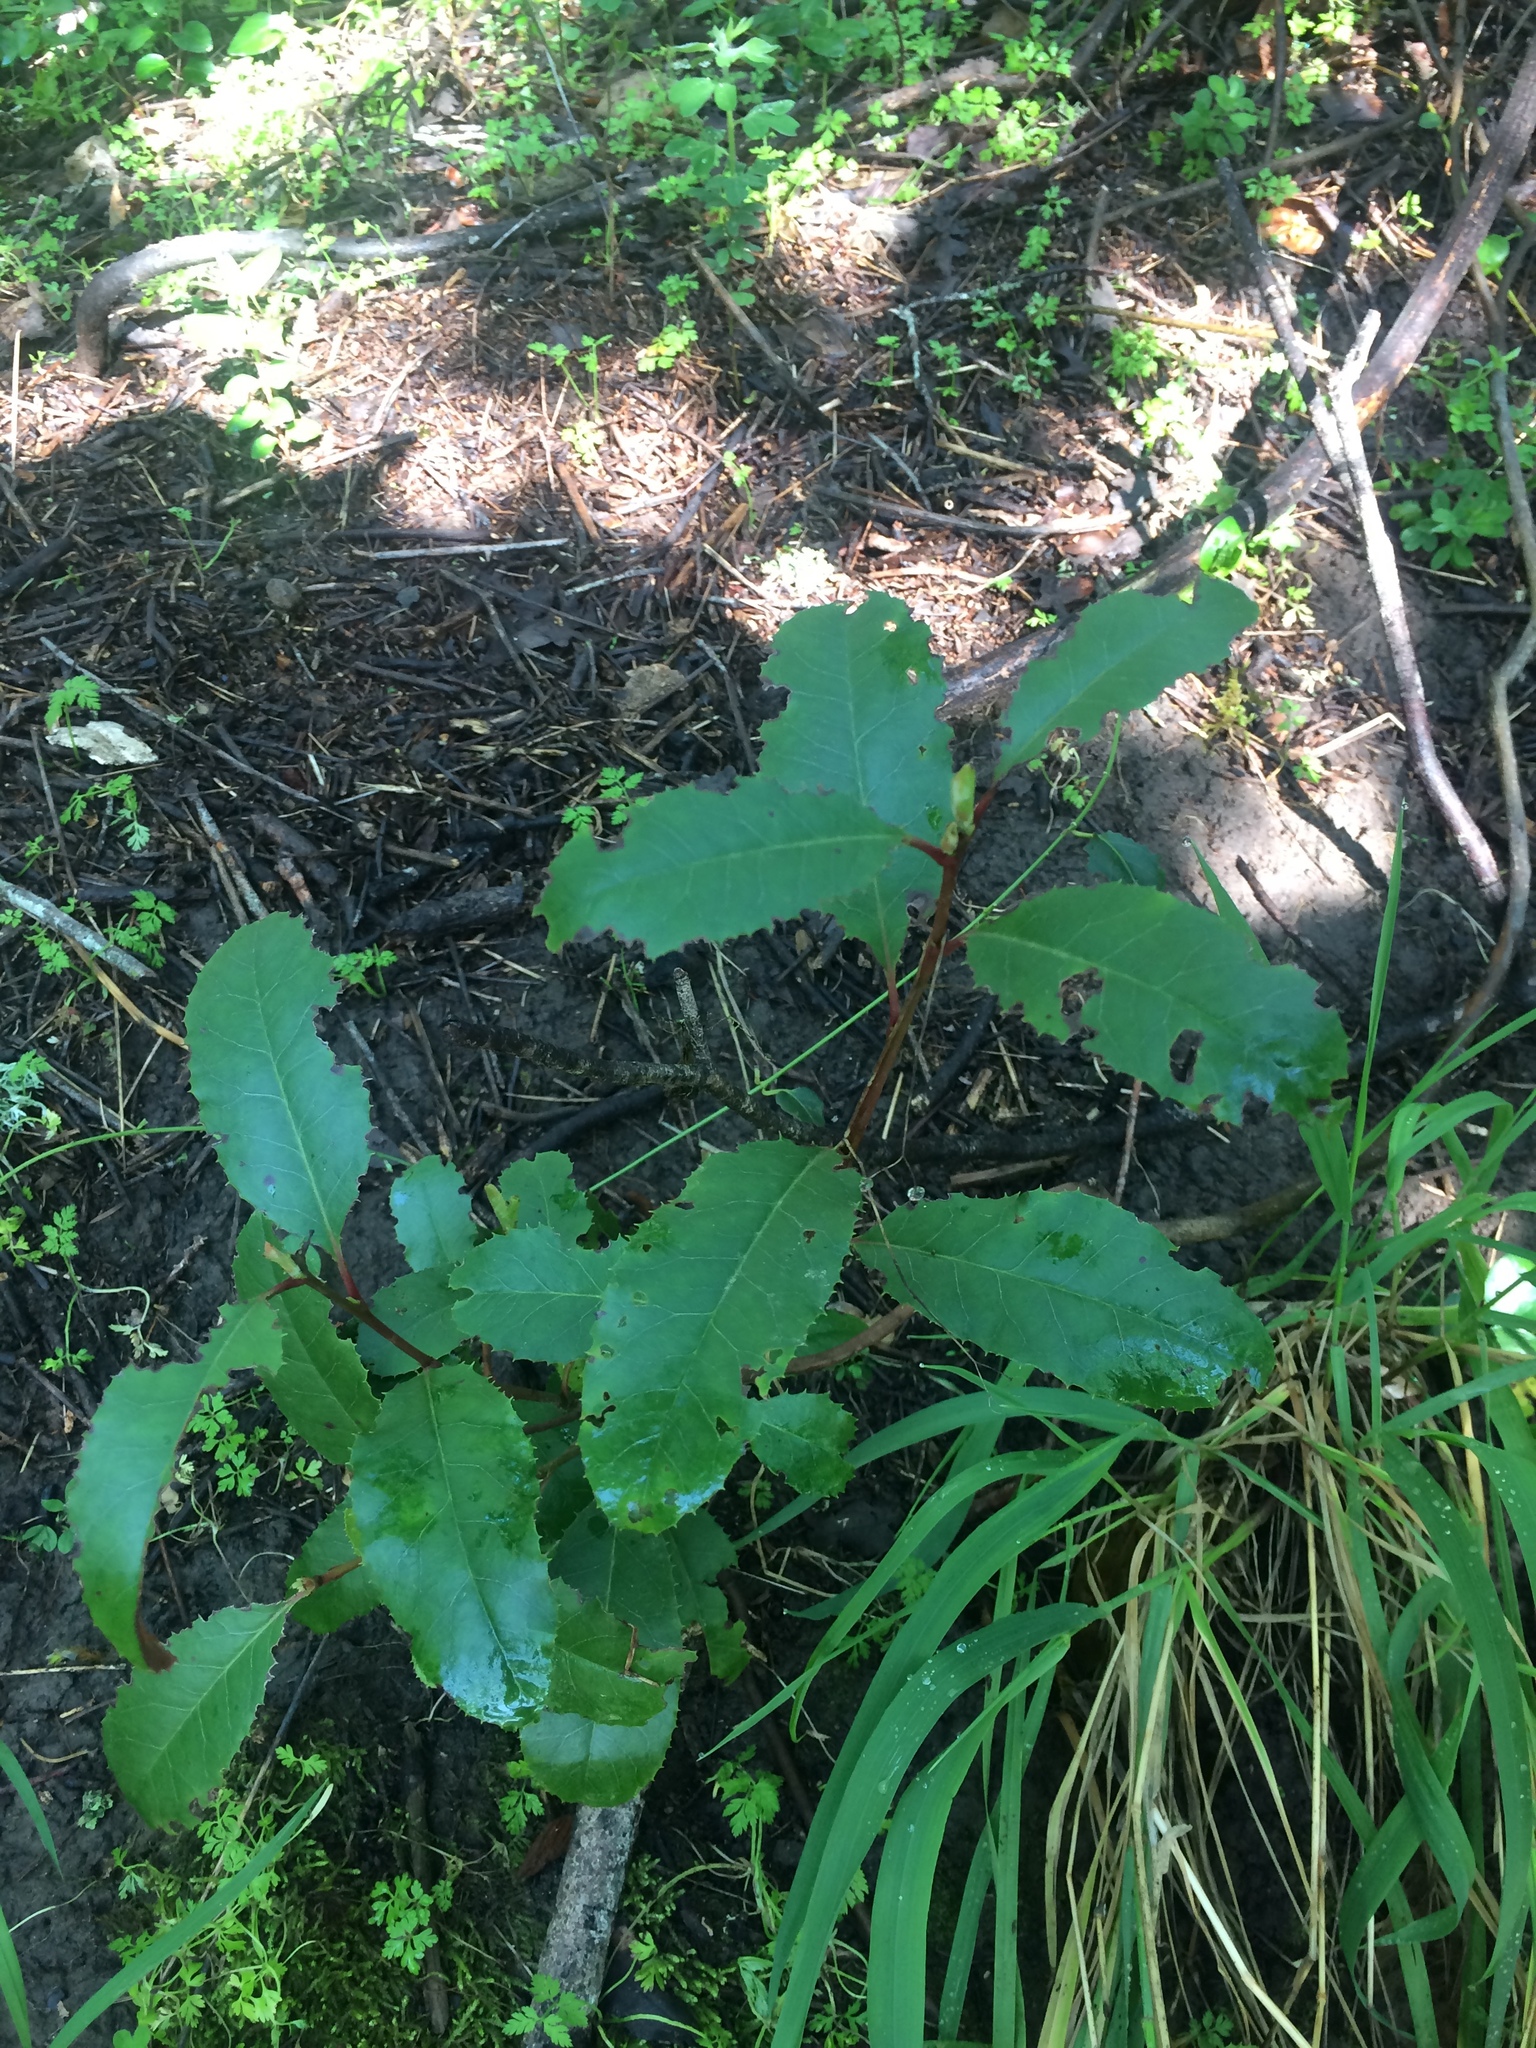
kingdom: Plantae
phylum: Tracheophyta
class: Magnoliopsida
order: Rosales
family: Rosaceae
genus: Heteromeles
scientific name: Heteromeles arbutifolia
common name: California-holly
